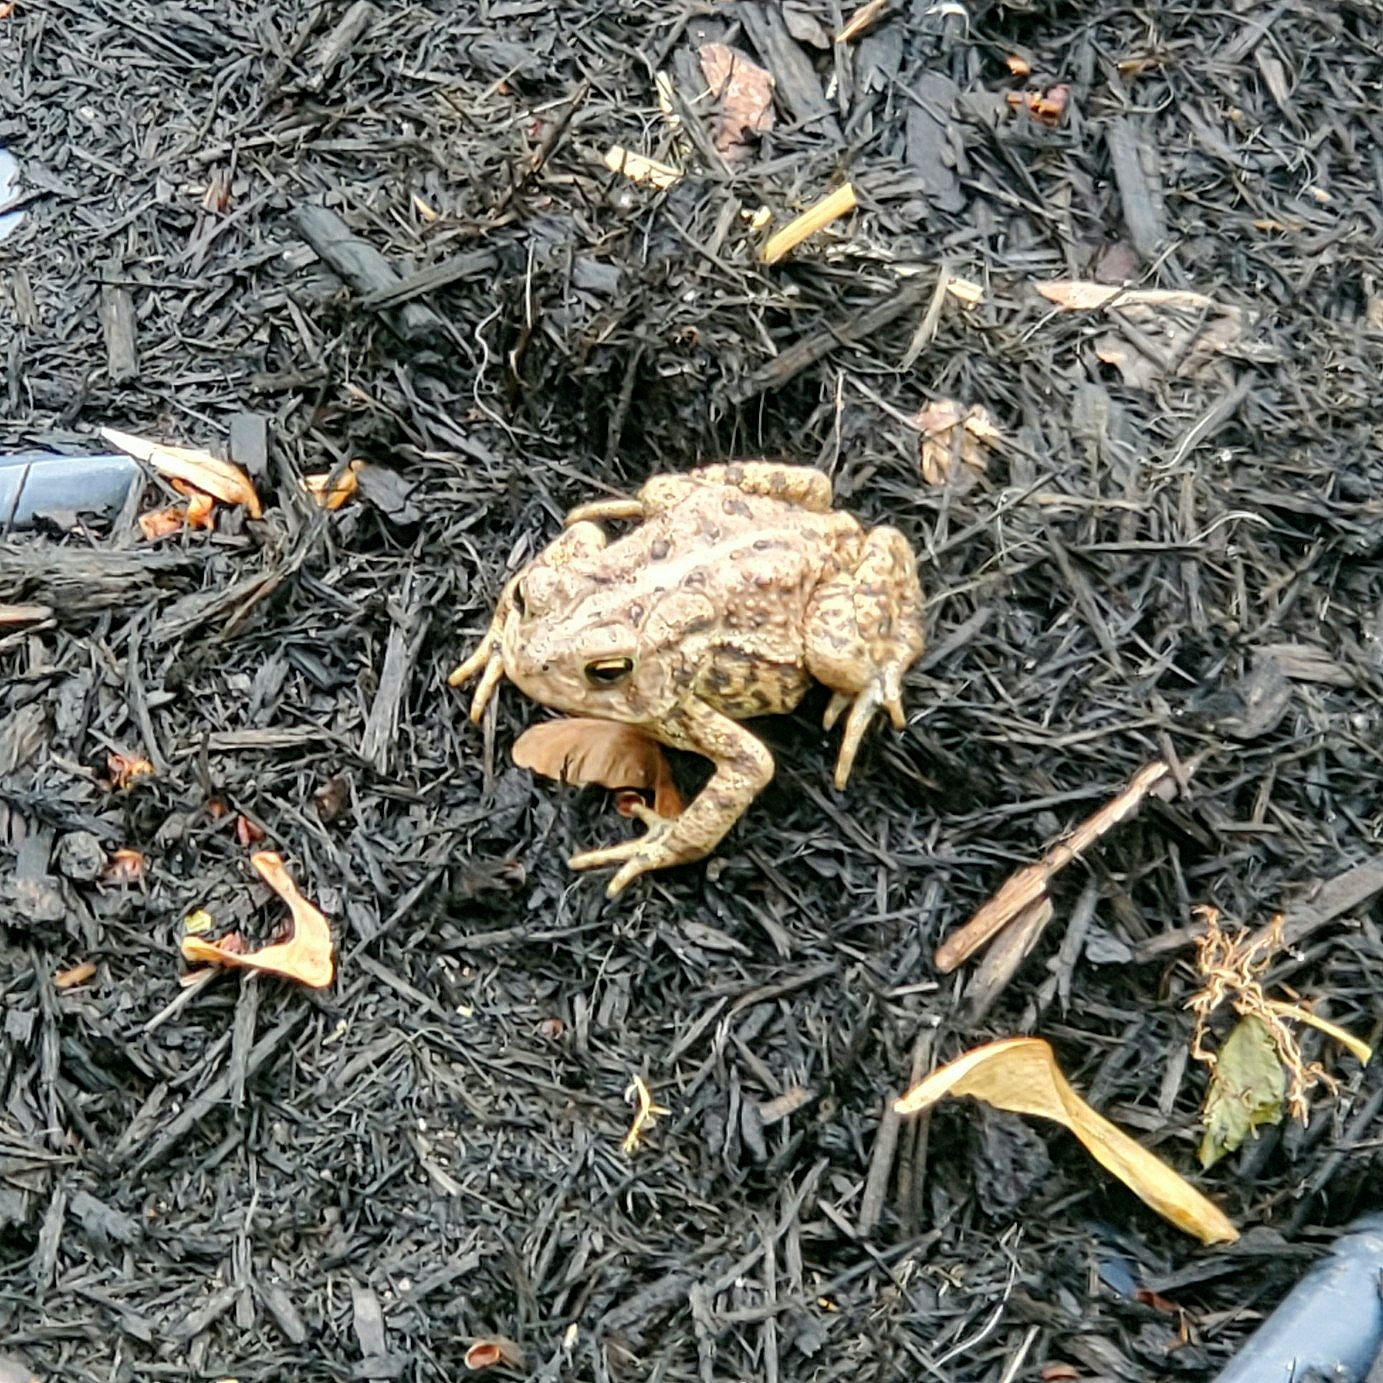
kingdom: Animalia
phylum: Chordata
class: Amphibia
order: Anura
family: Bufonidae
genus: Anaxyrus
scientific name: Anaxyrus americanus
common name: American toad
